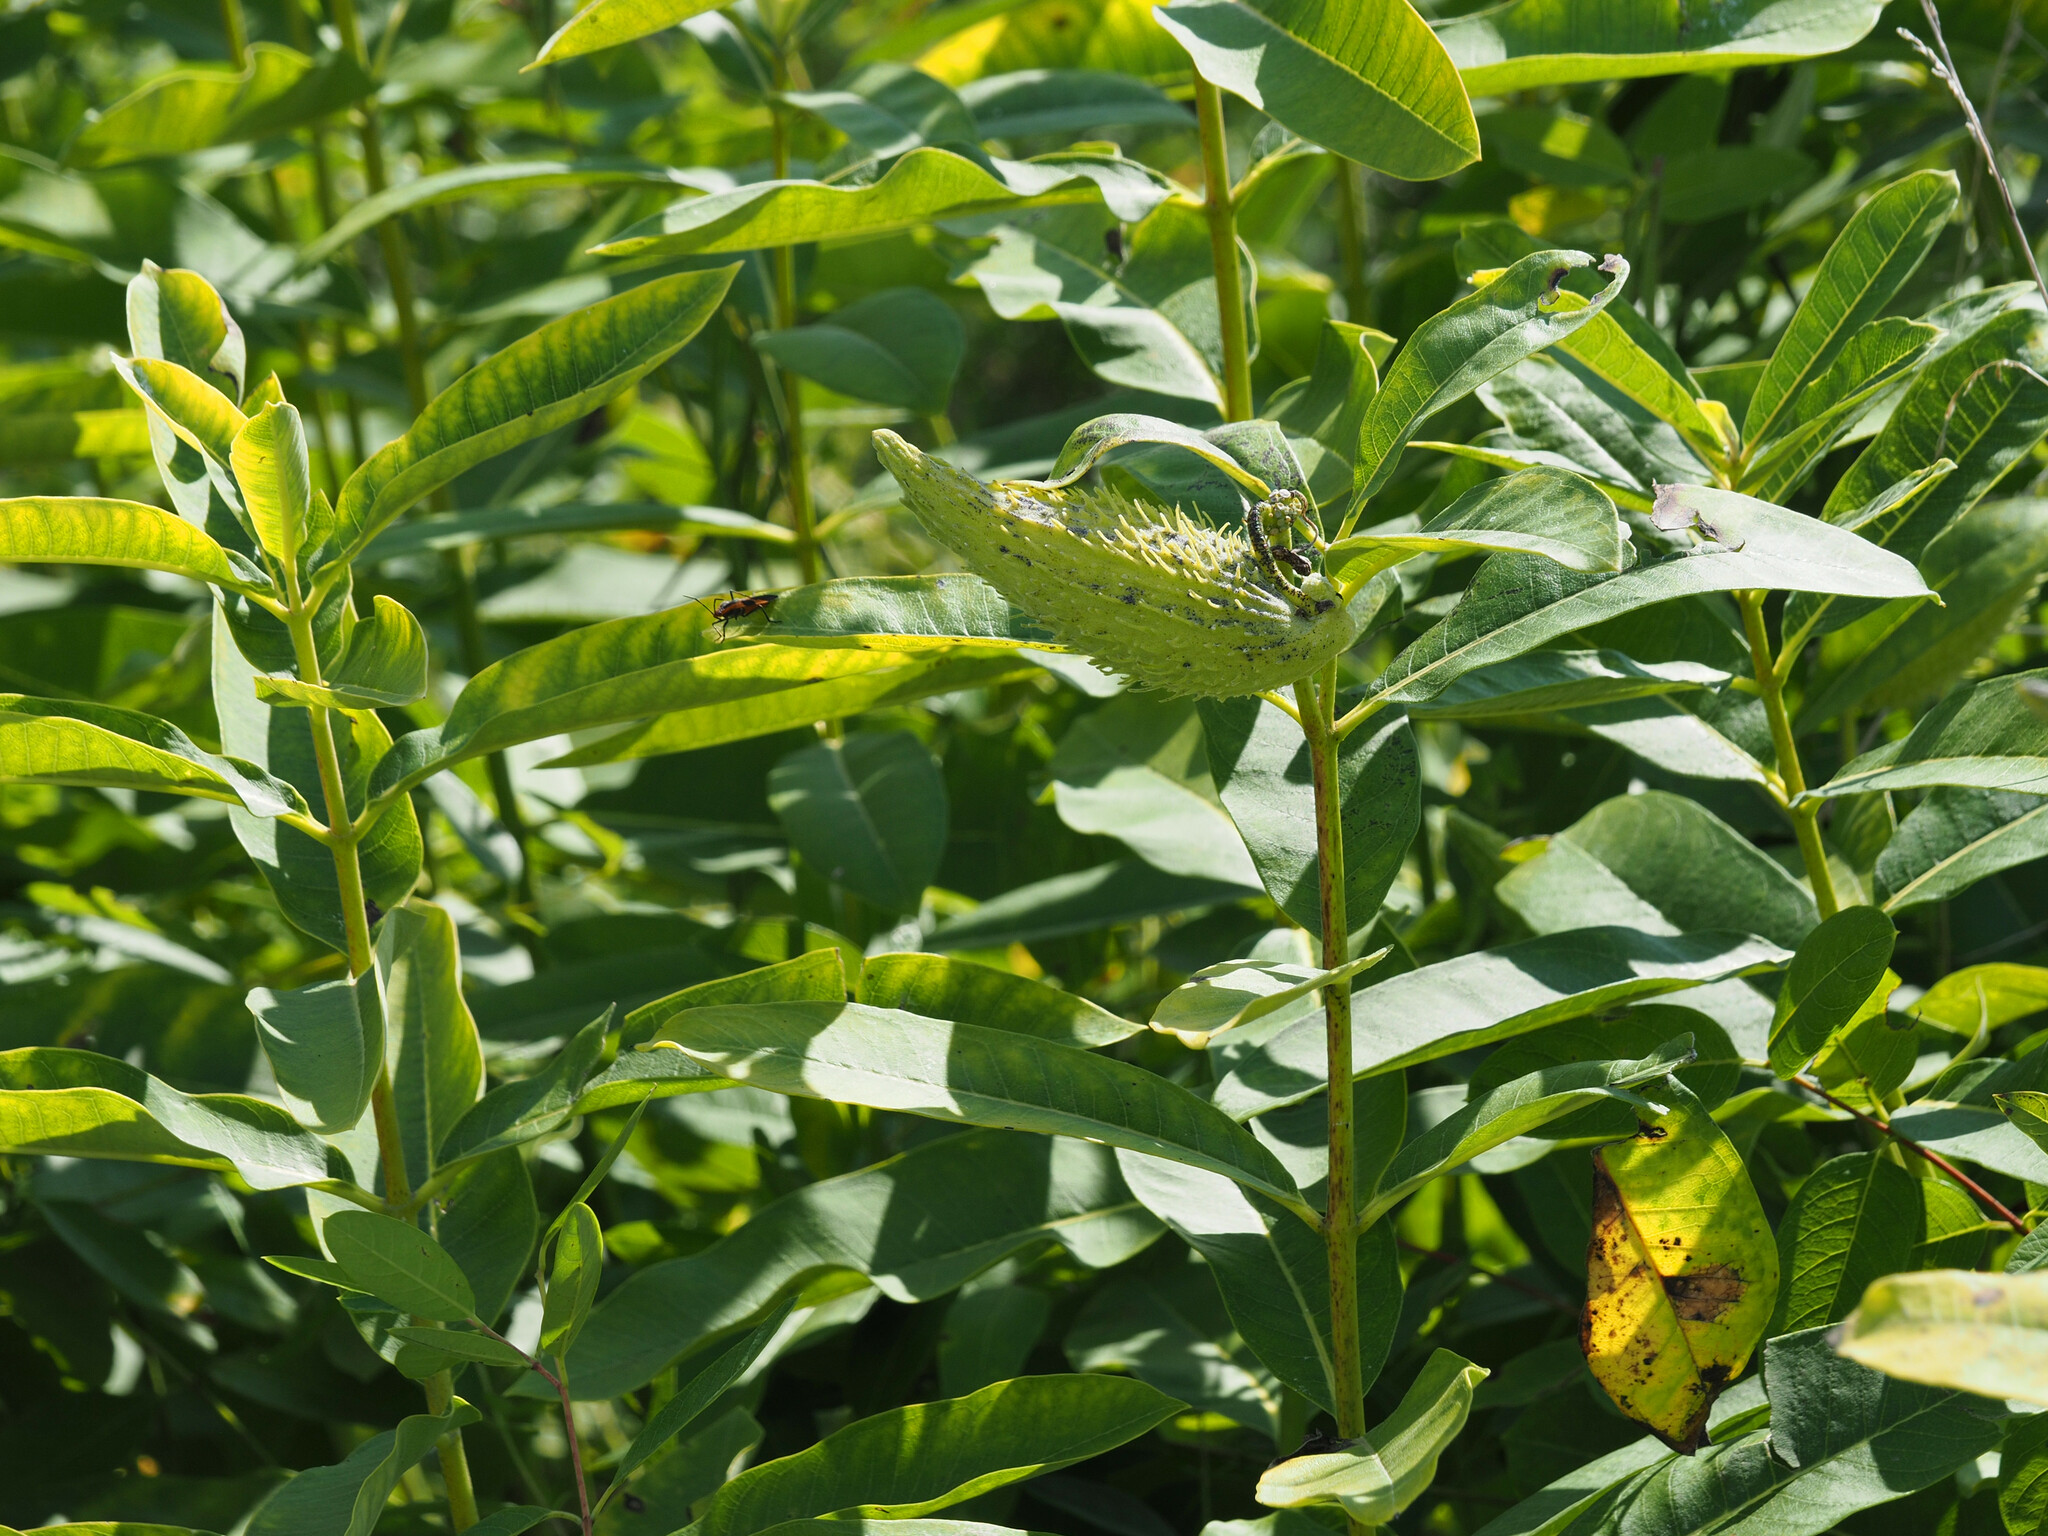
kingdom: Plantae
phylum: Tracheophyta
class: Magnoliopsida
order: Gentianales
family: Apocynaceae
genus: Asclepias
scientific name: Asclepias syriaca
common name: Common milkweed
